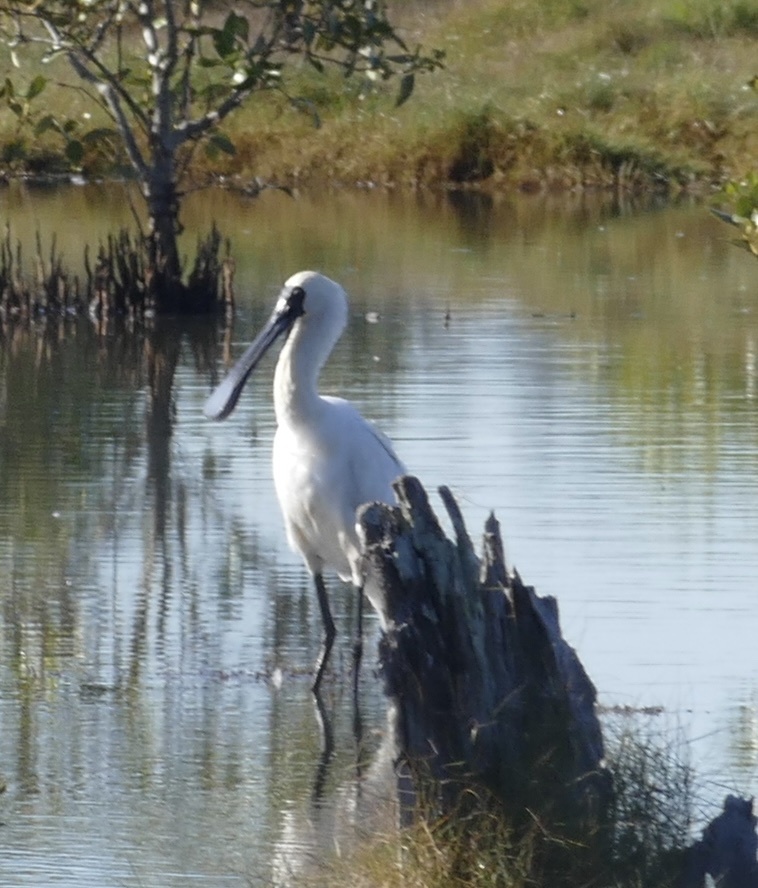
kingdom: Animalia
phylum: Chordata
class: Aves
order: Pelecaniformes
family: Threskiornithidae
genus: Platalea
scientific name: Platalea regia
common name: Royal spoonbill
